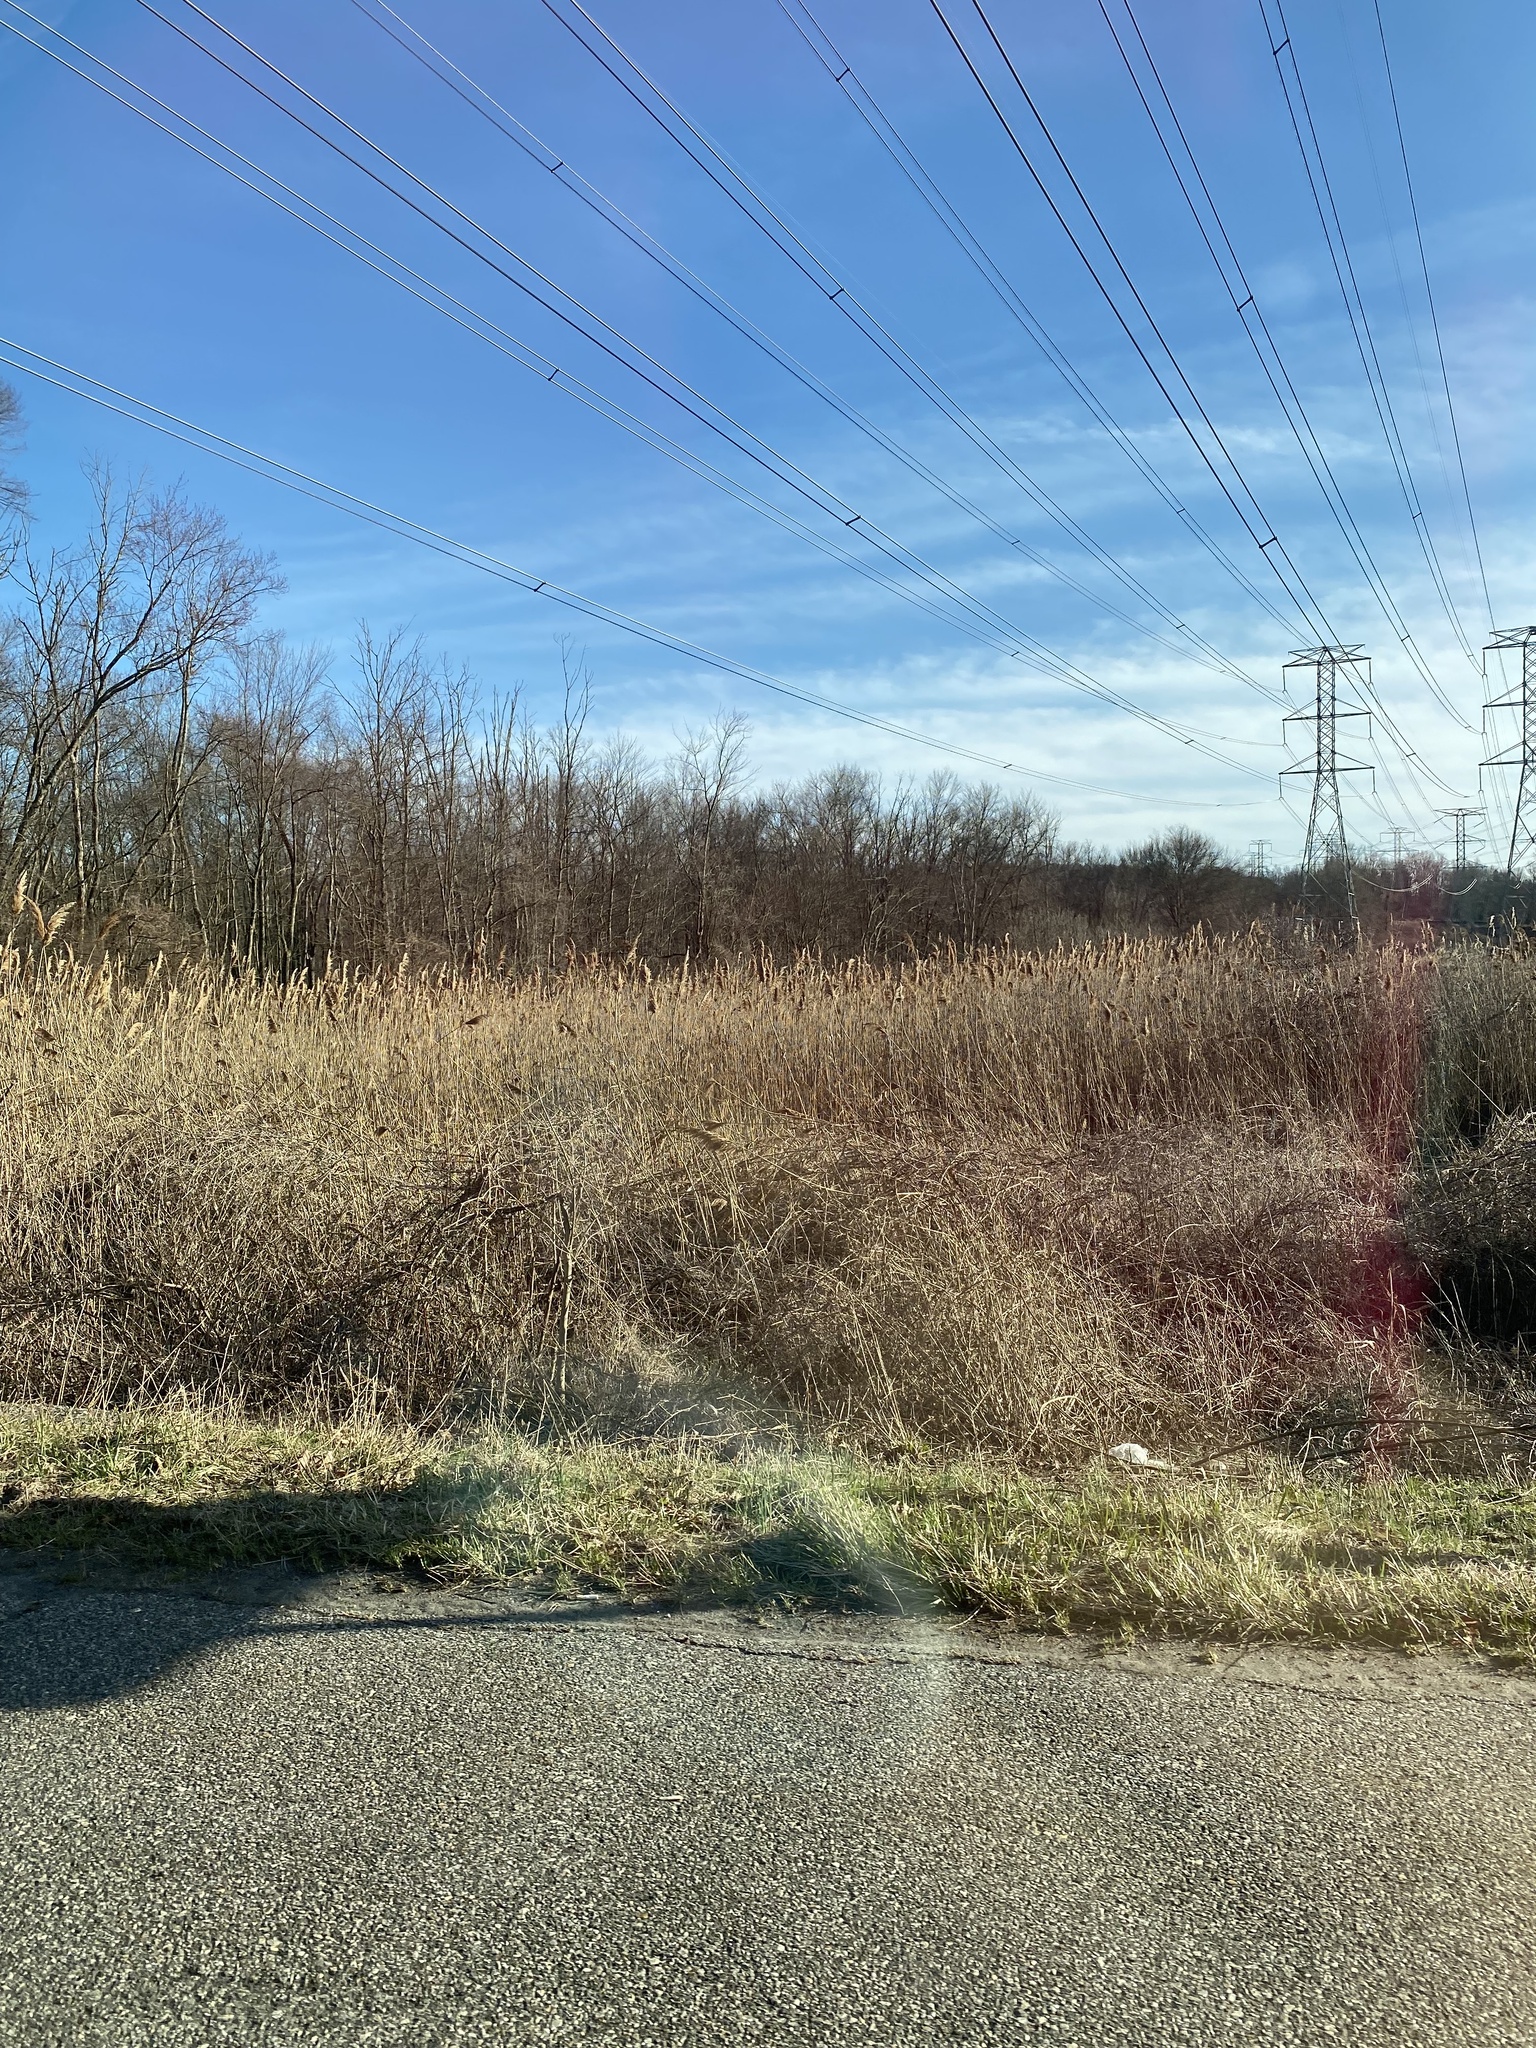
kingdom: Plantae
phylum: Tracheophyta
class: Liliopsida
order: Poales
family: Poaceae
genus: Phragmites
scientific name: Phragmites australis
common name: Common reed
